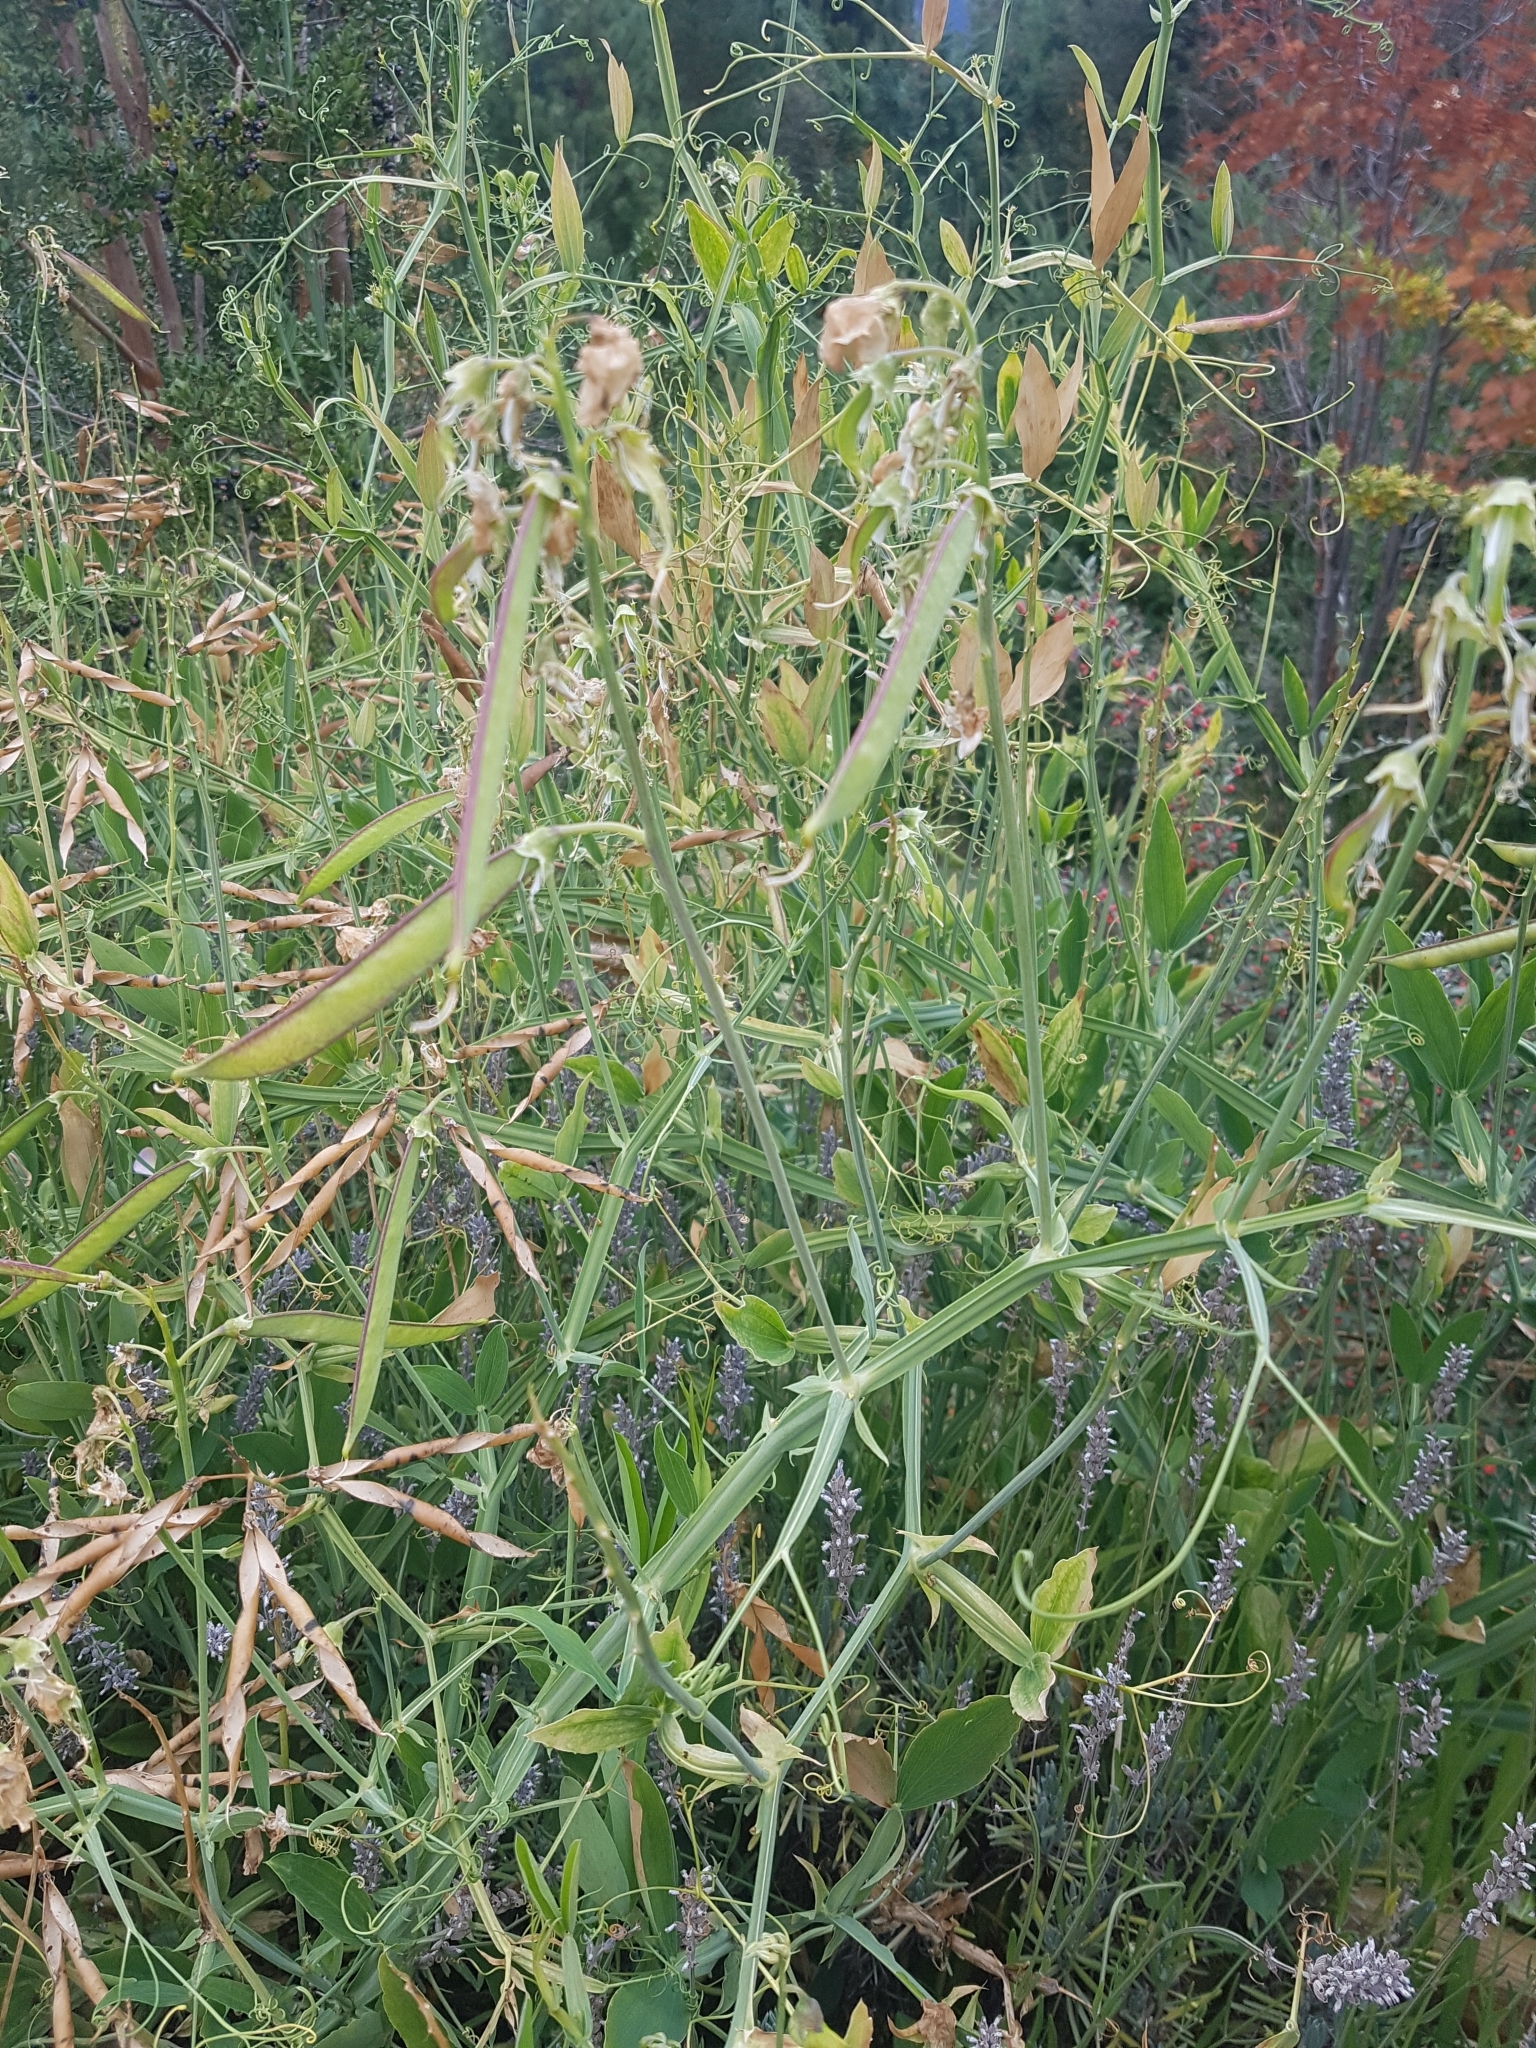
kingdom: Plantae
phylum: Tracheophyta
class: Magnoliopsida
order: Fabales
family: Fabaceae
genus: Lathyrus
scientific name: Lathyrus latifolius
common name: Perennial pea
